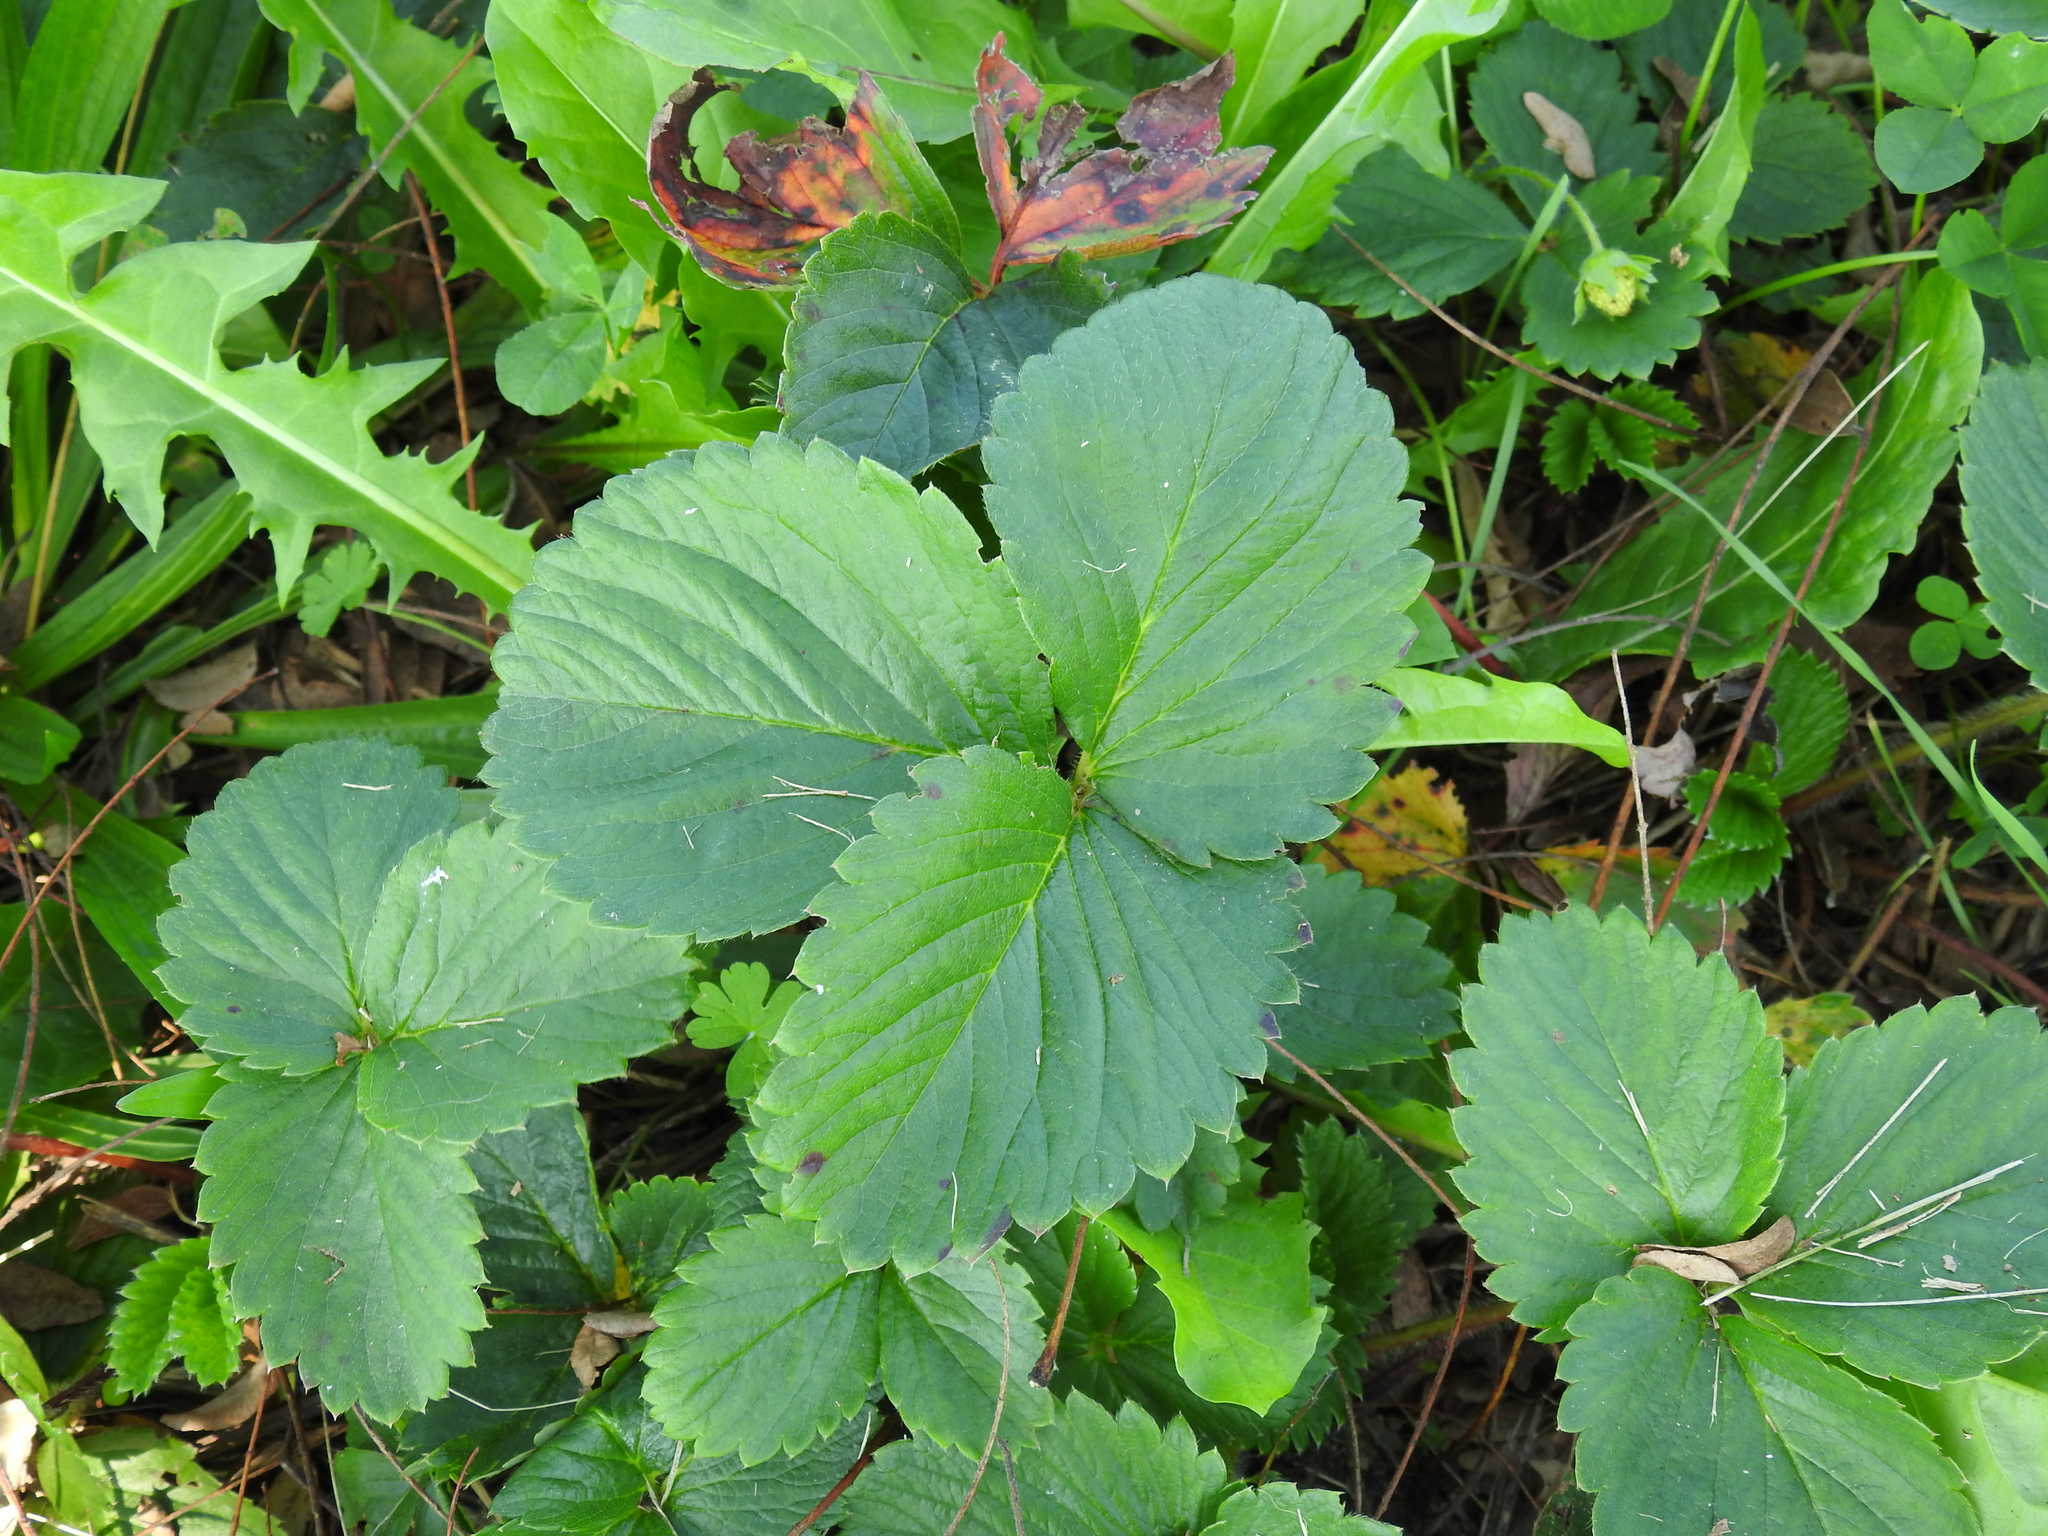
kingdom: Plantae
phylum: Tracheophyta
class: Magnoliopsida
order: Rosales
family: Rosaceae
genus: Fragaria
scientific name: Fragaria ananassa
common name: Garden strawberry
